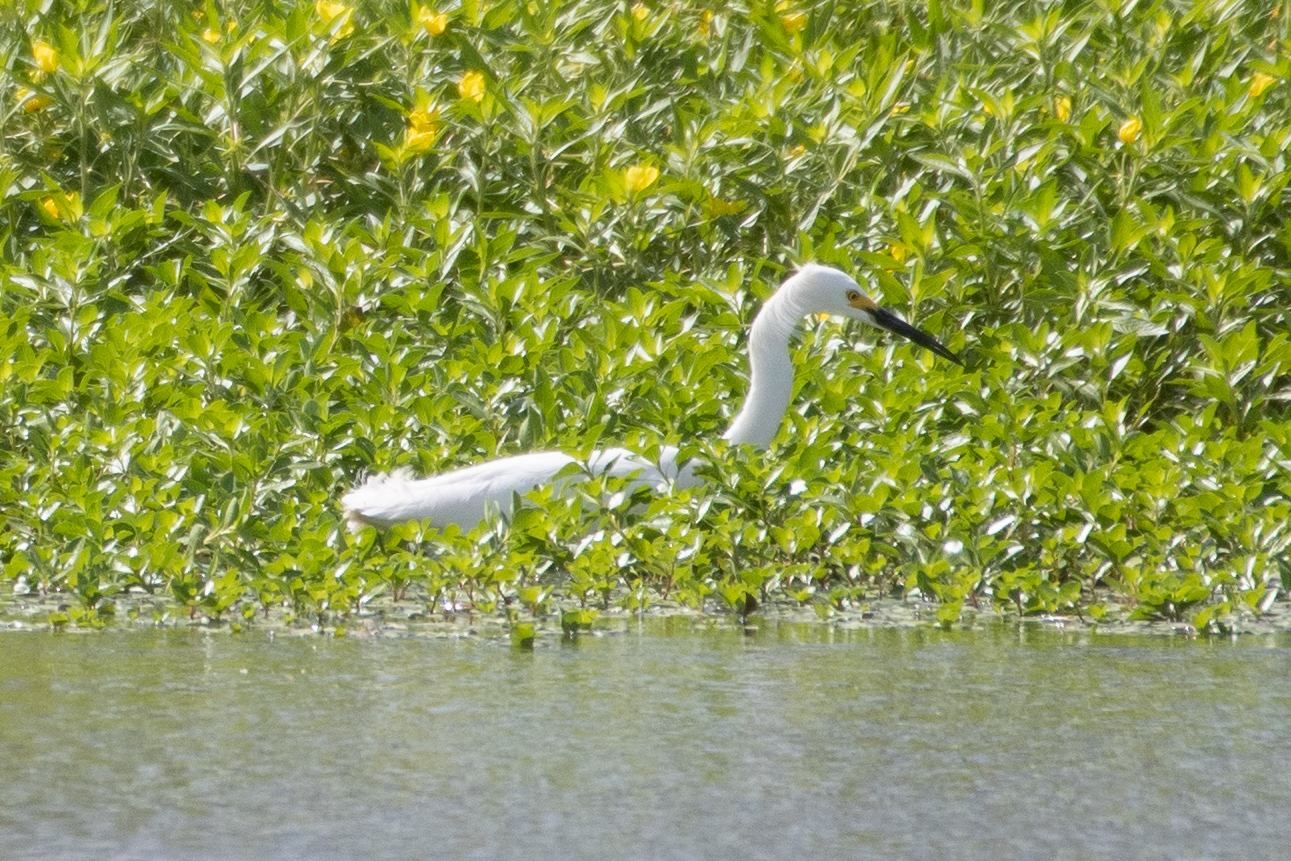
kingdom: Animalia
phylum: Chordata
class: Aves
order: Pelecaniformes
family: Ardeidae
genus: Egretta
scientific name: Egretta thula
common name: Snowy egret
